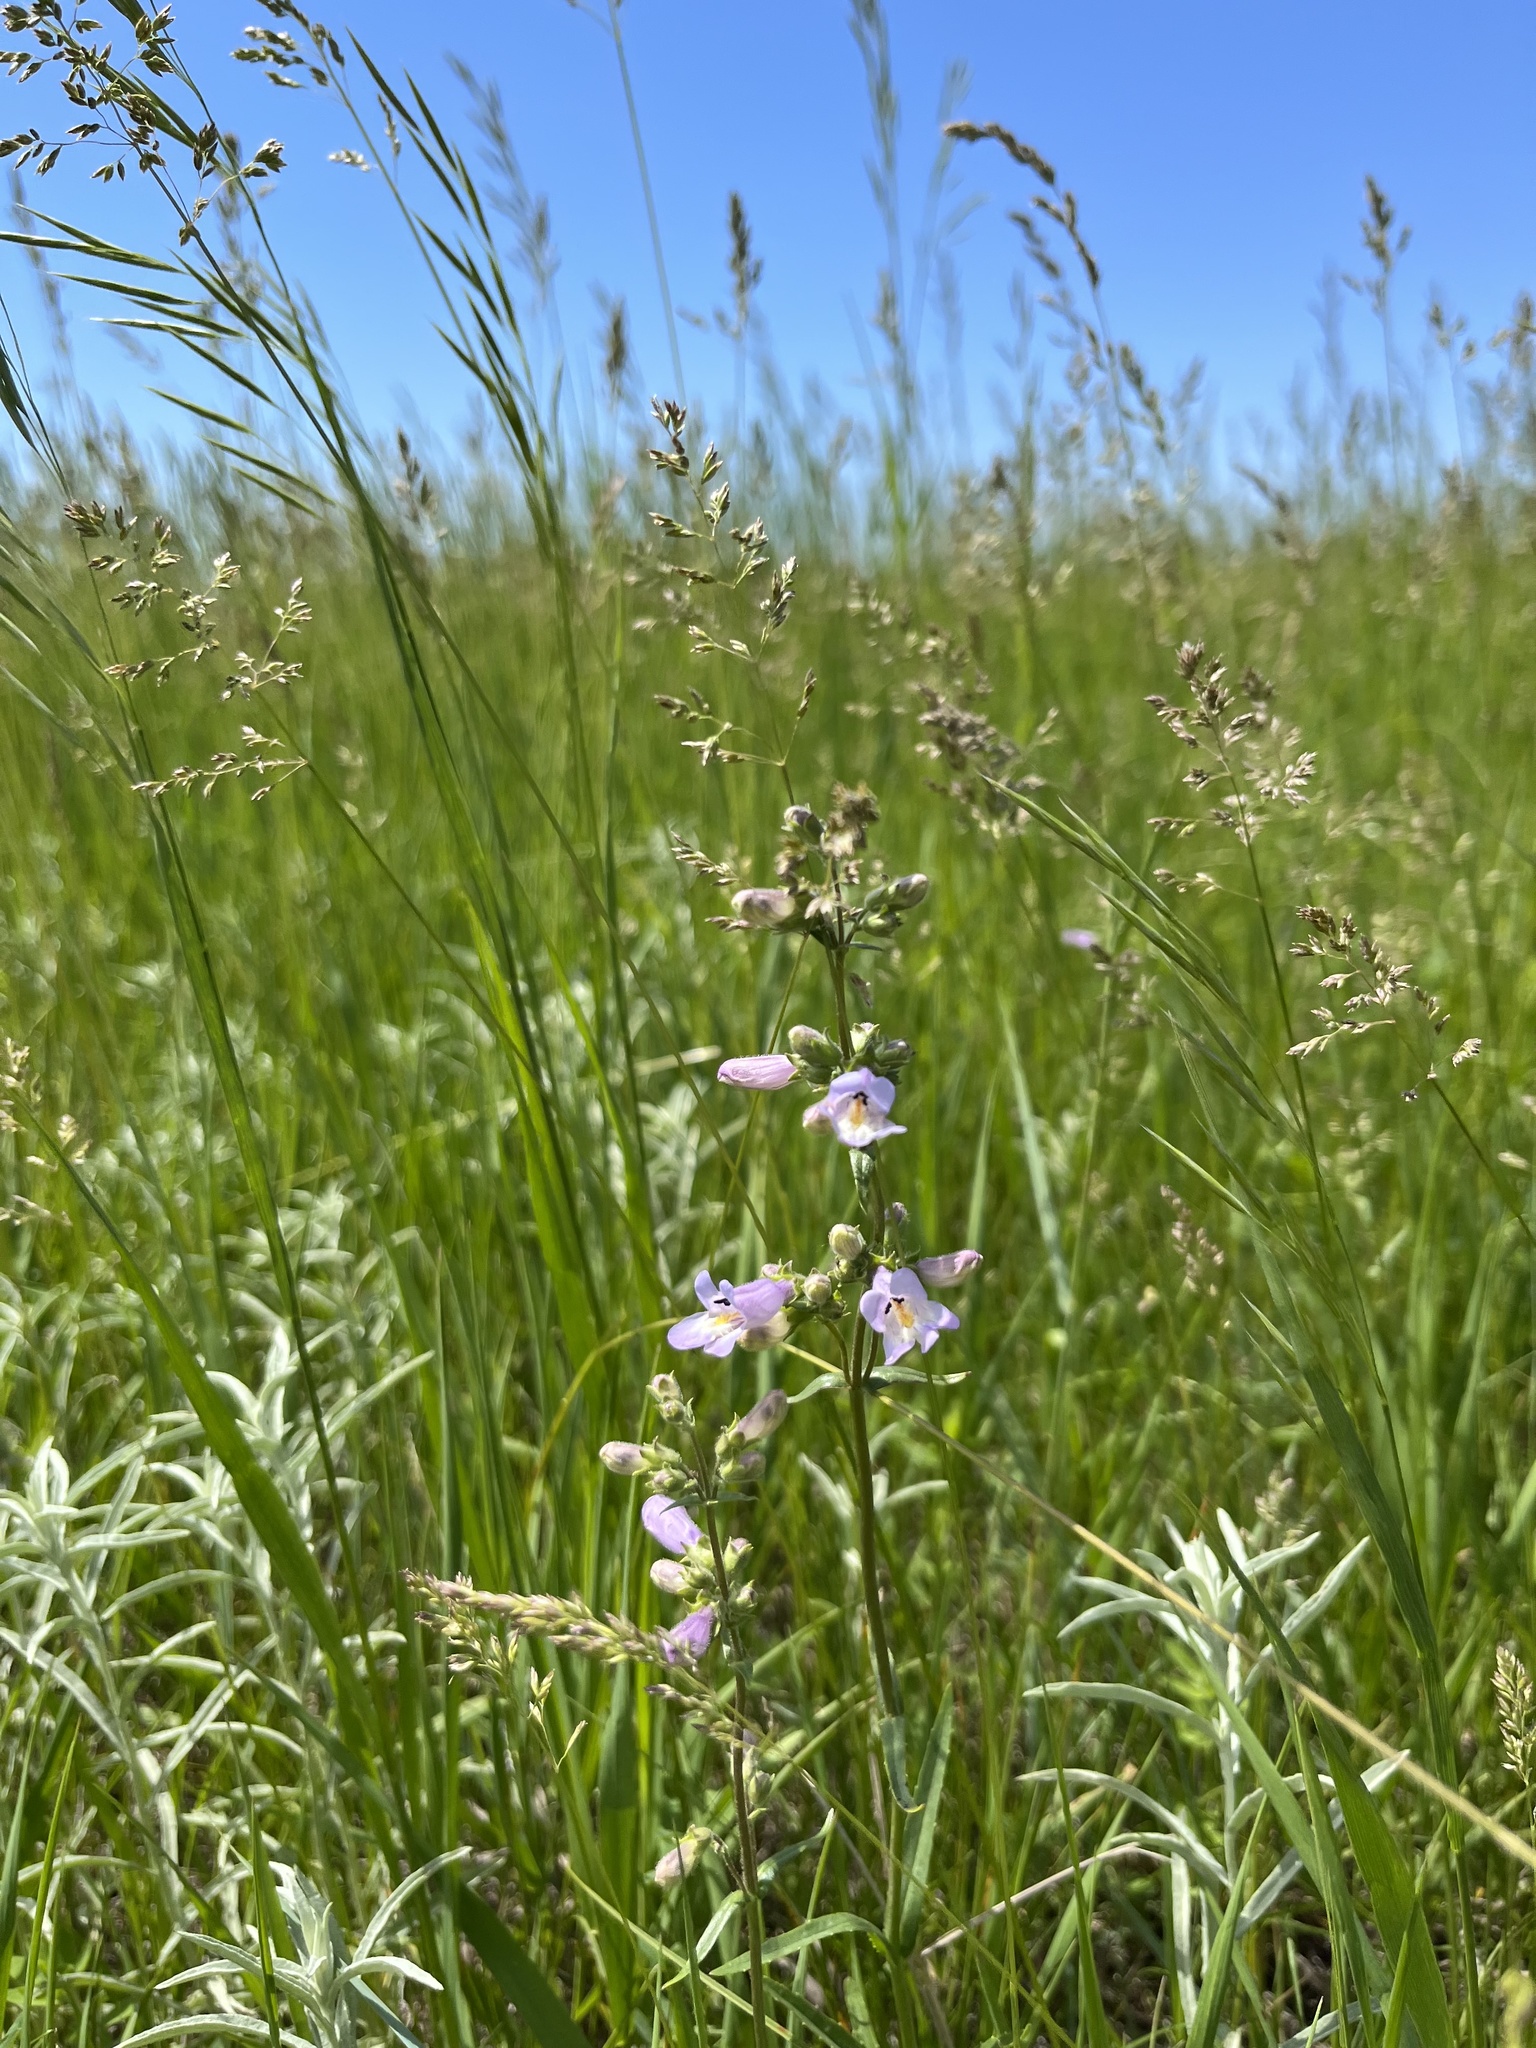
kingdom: Plantae
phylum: Tracheophyta
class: Magnoliopsida
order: Lamiales
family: Plantaginaceae
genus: Penstemon
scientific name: Penstemon gracilis
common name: Slender beardtongue
